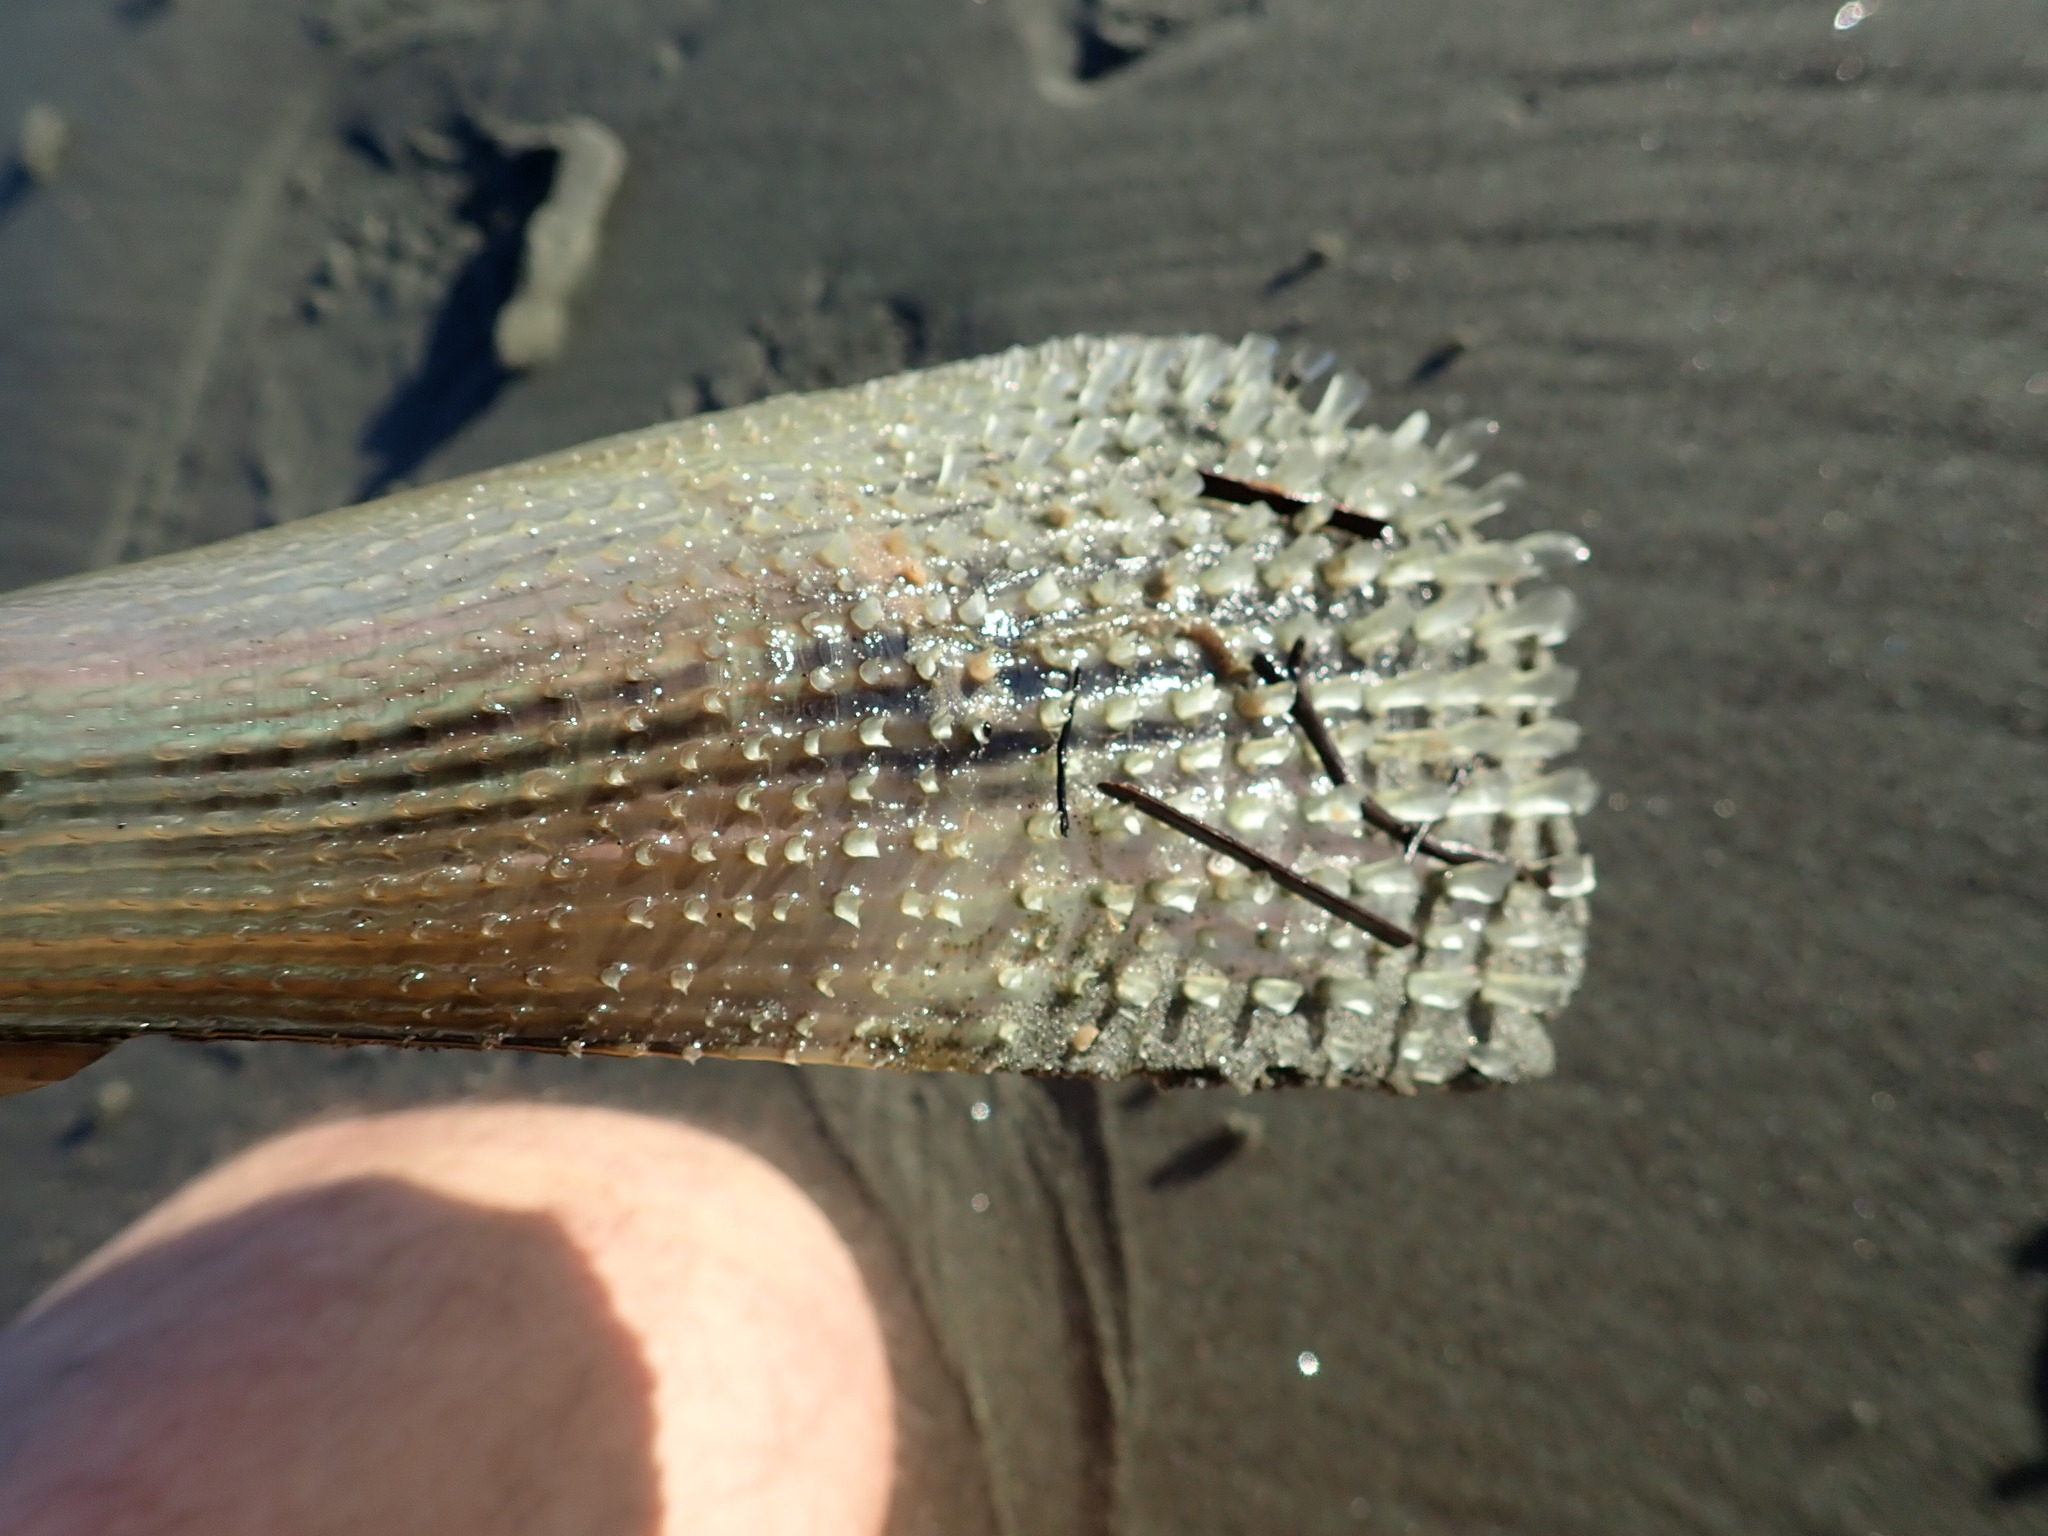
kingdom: Animalia
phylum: Mollusca
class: Bivalvia
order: Ostreida
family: Pinnidae
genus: Atrina
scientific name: Atrina zelandica
